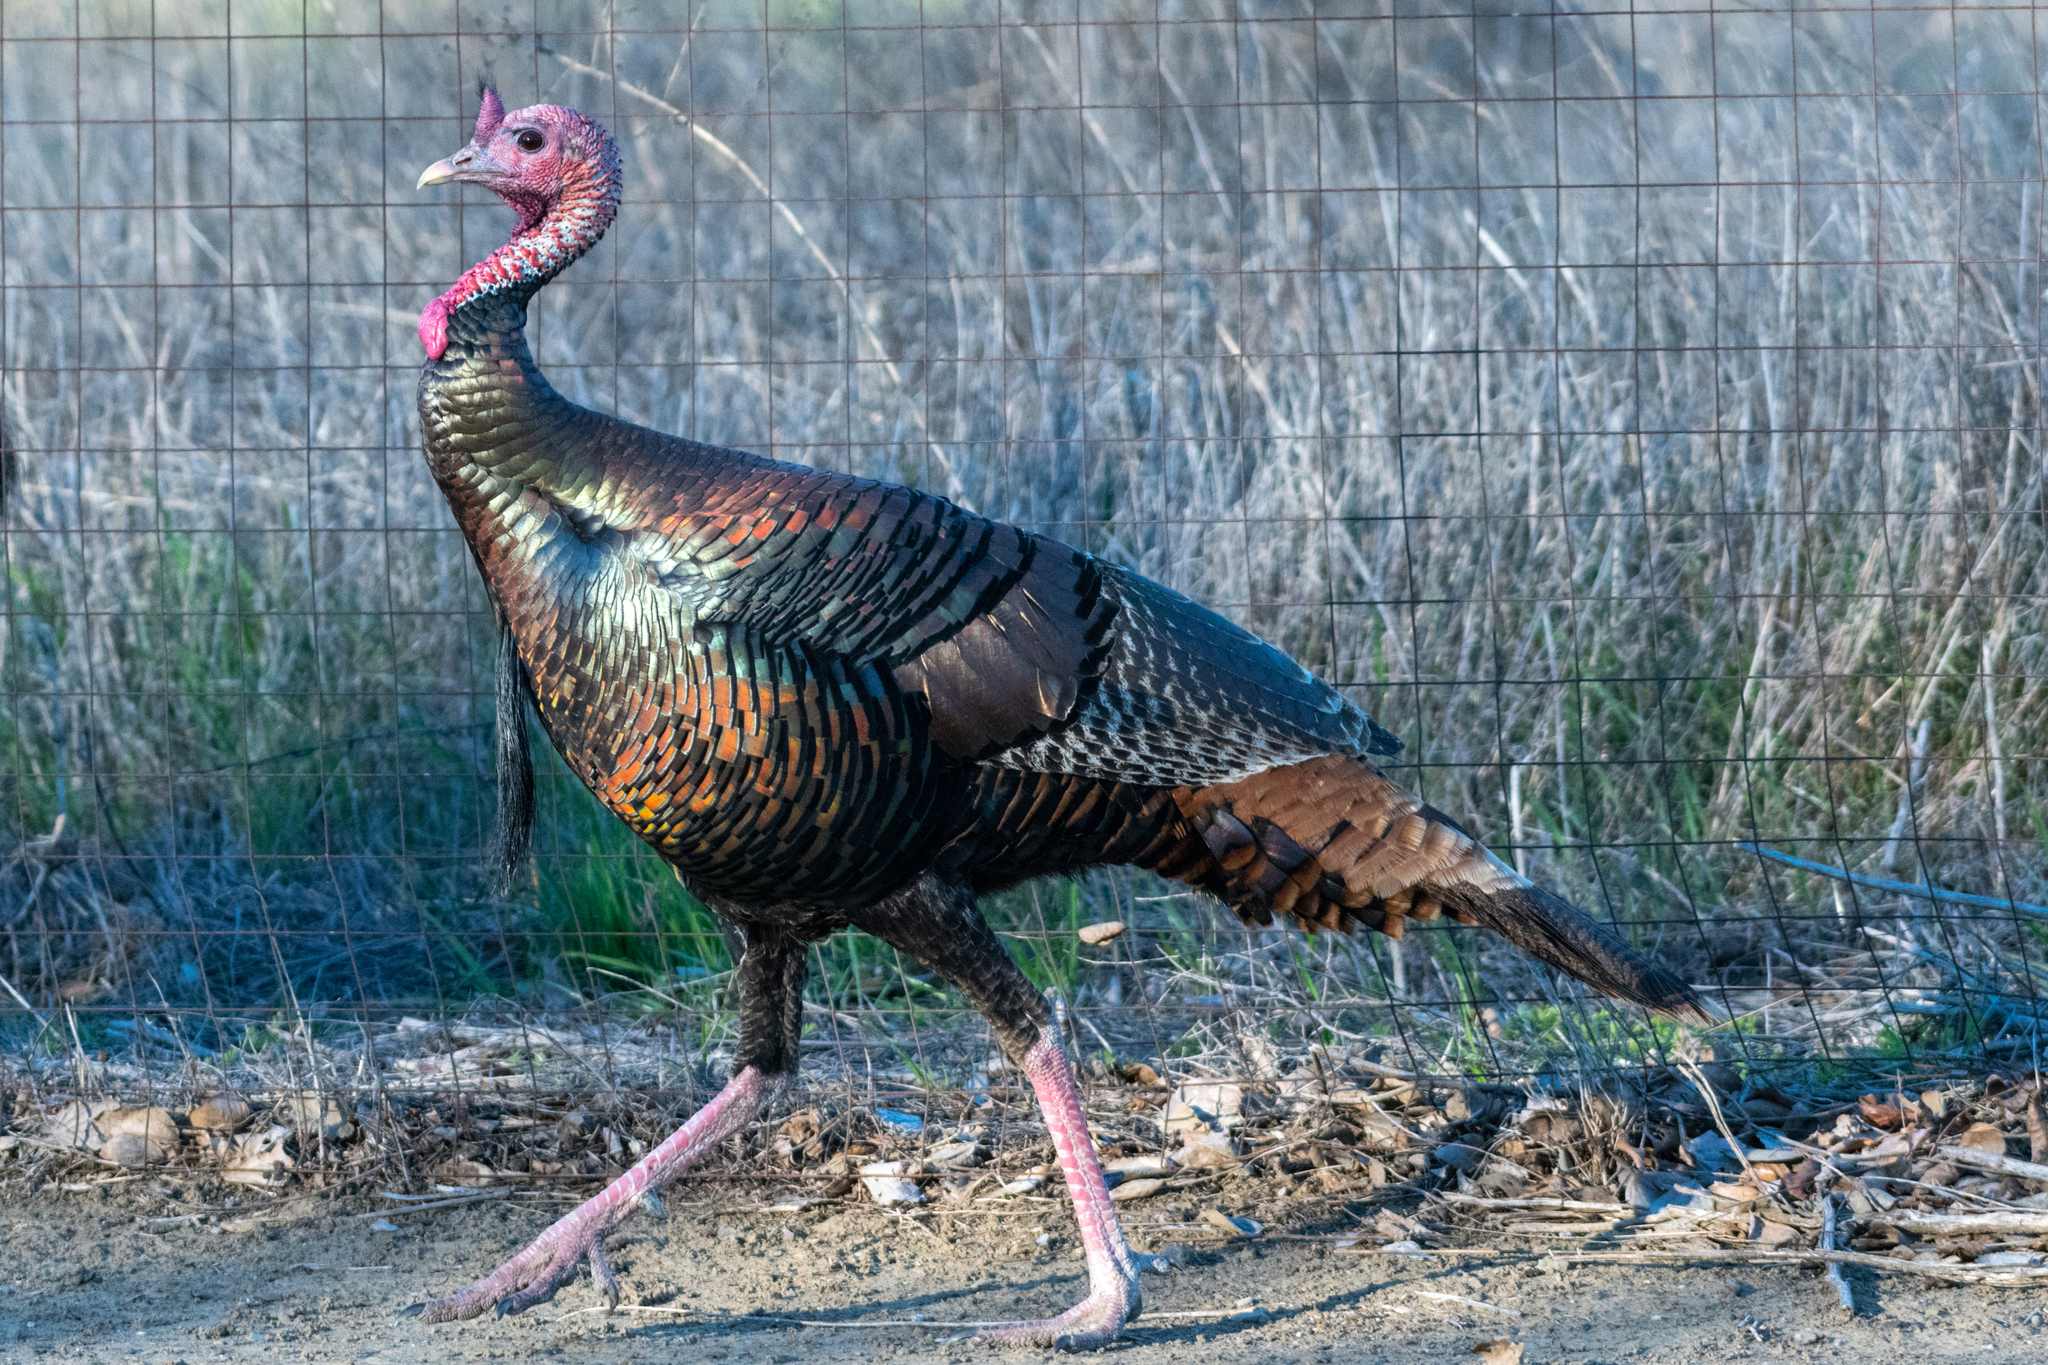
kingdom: Animalia
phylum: Chordata
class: Aves
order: Galliformes
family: Phasianidae
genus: Meleagris
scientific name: Meleagris gallopavo
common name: Wild turkey
